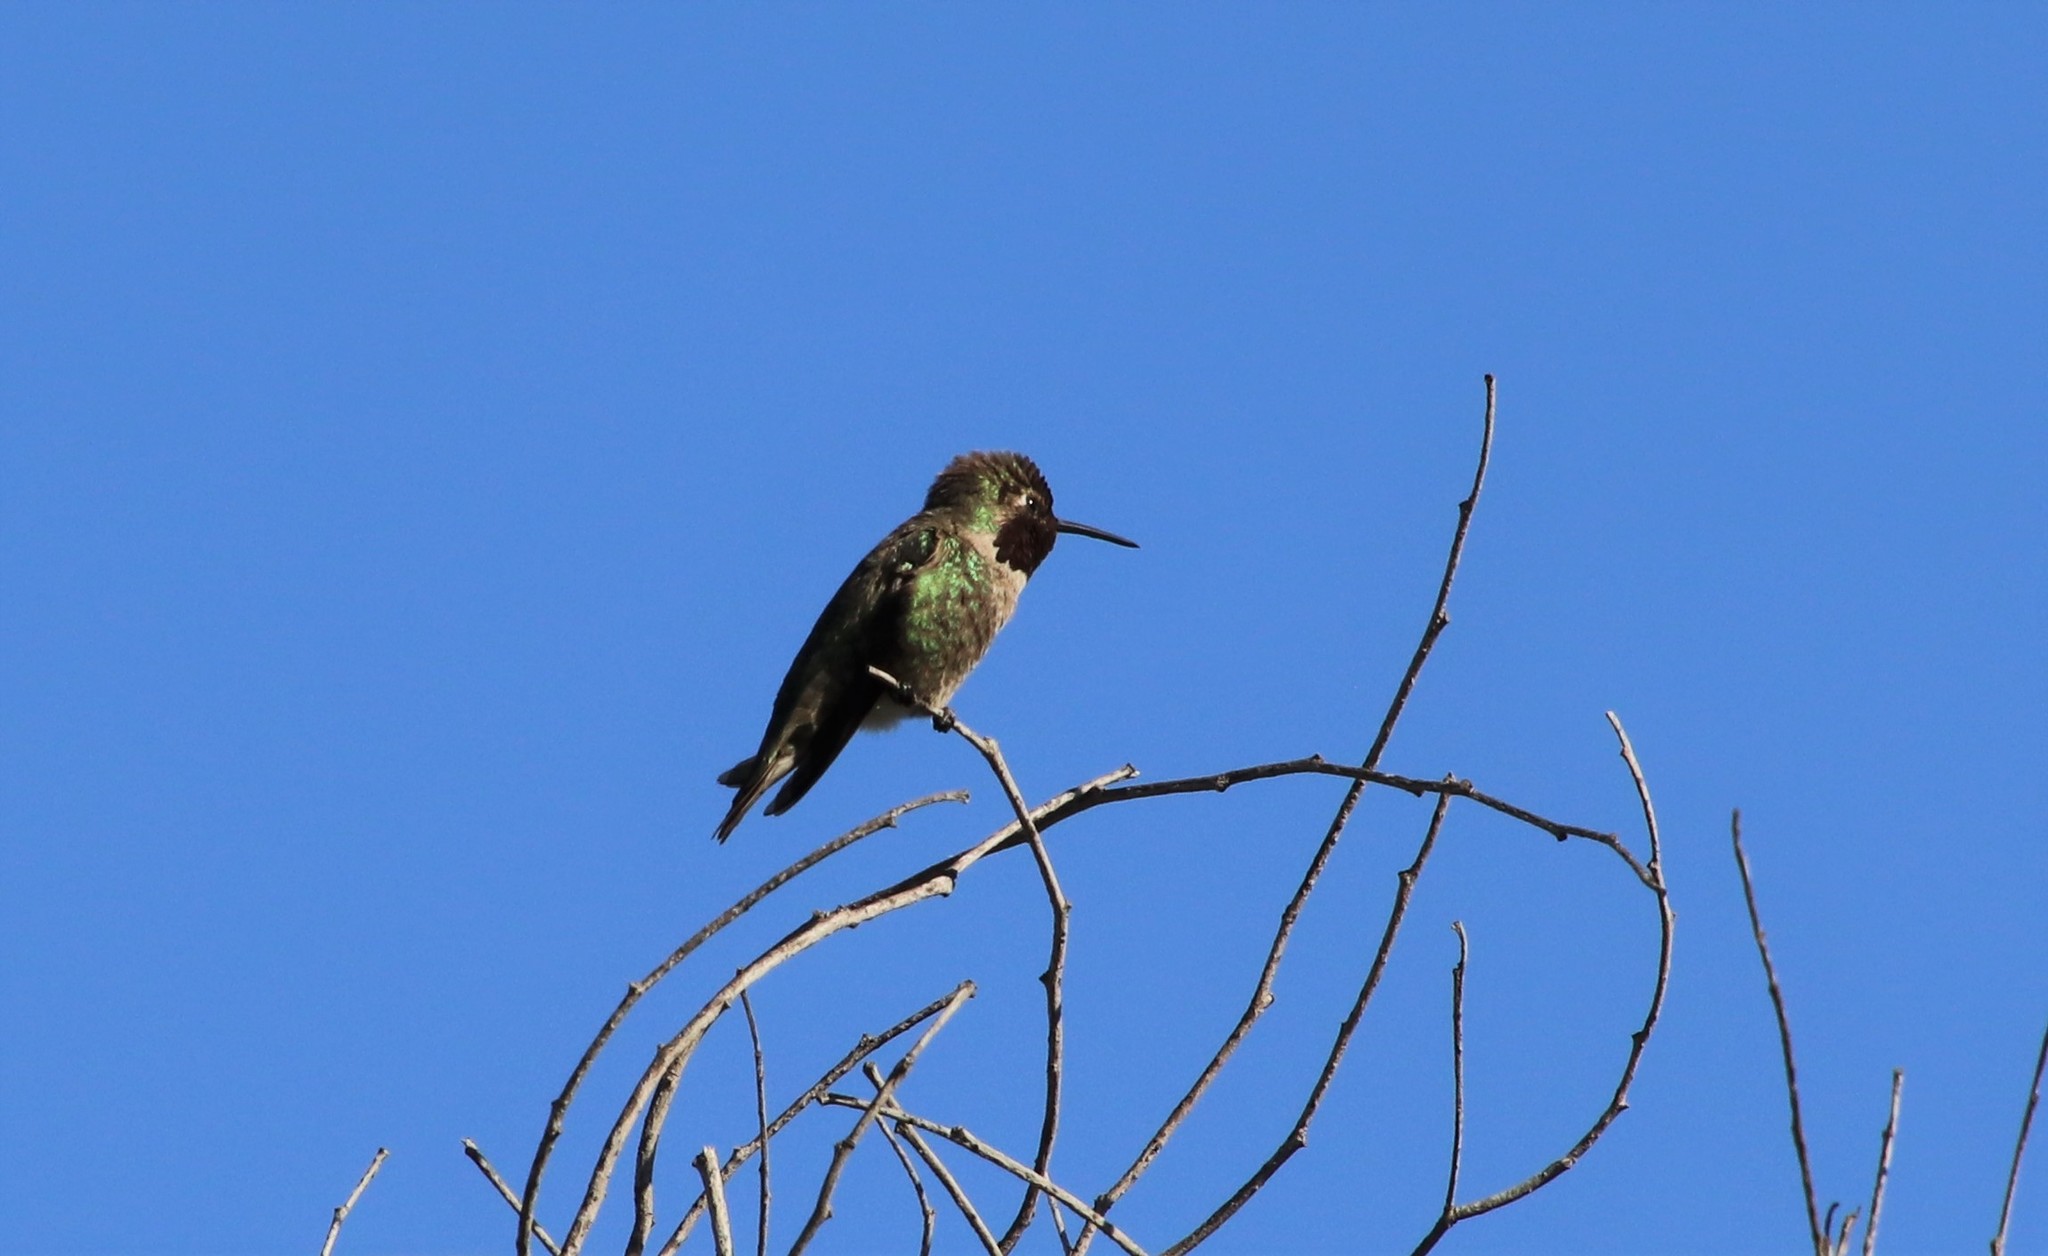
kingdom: Animalia
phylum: Chordata
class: Aves
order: Apodiformes
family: Trochilidae
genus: Calypte
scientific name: Calypte anna
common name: Anna's hummingbird
